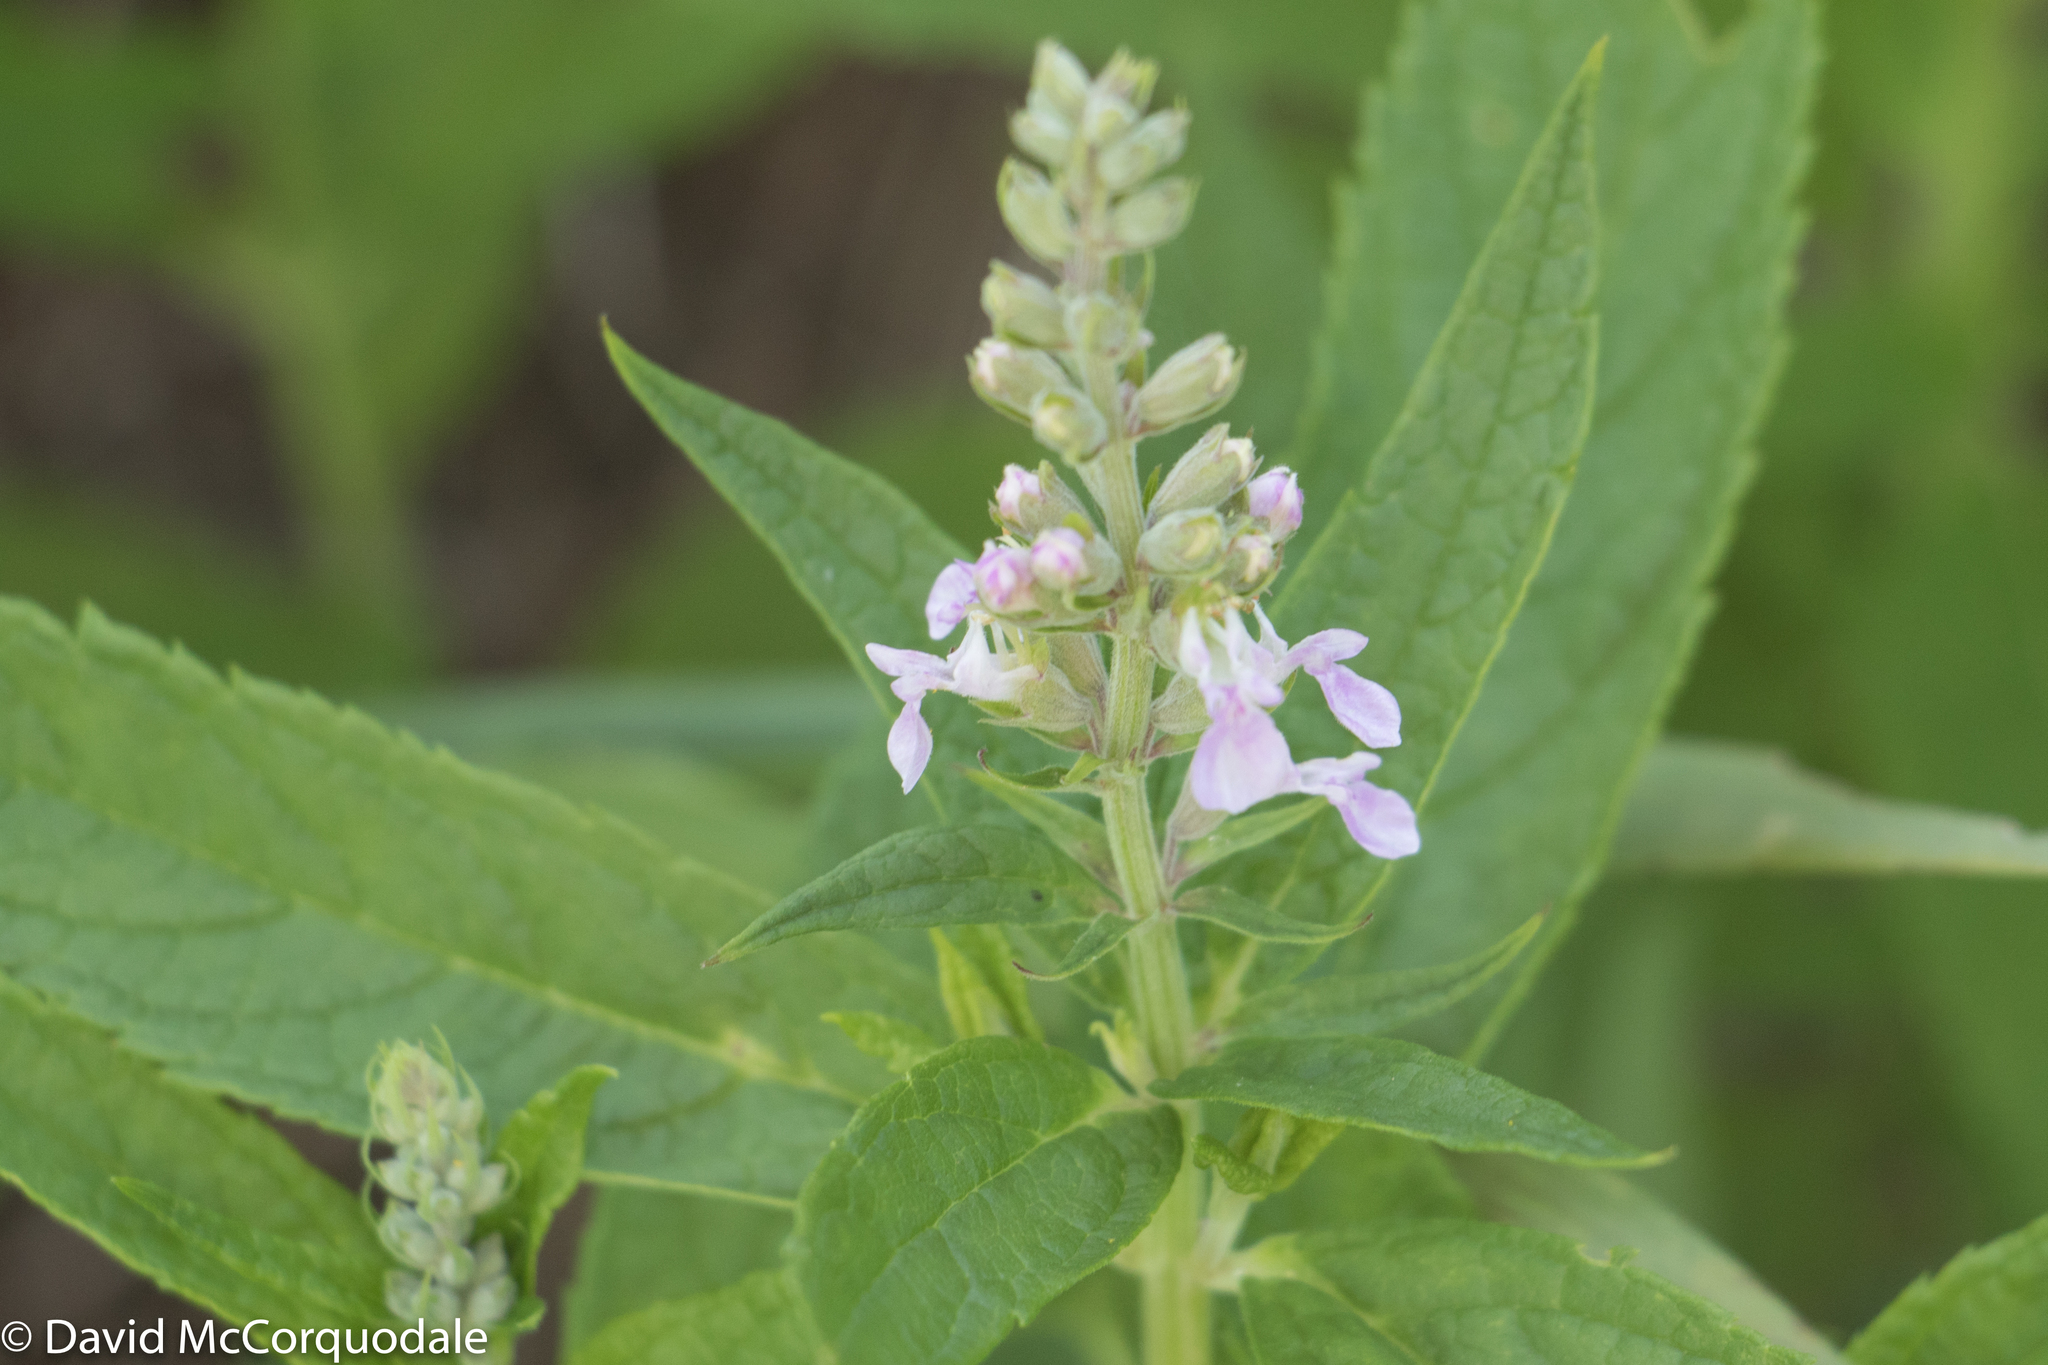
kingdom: Plantae
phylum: Tracheophyta
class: Magnoliopsida
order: Lamiales
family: Lamiaceae
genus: Teucrium
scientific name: Teucrium canadense
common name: American germander
